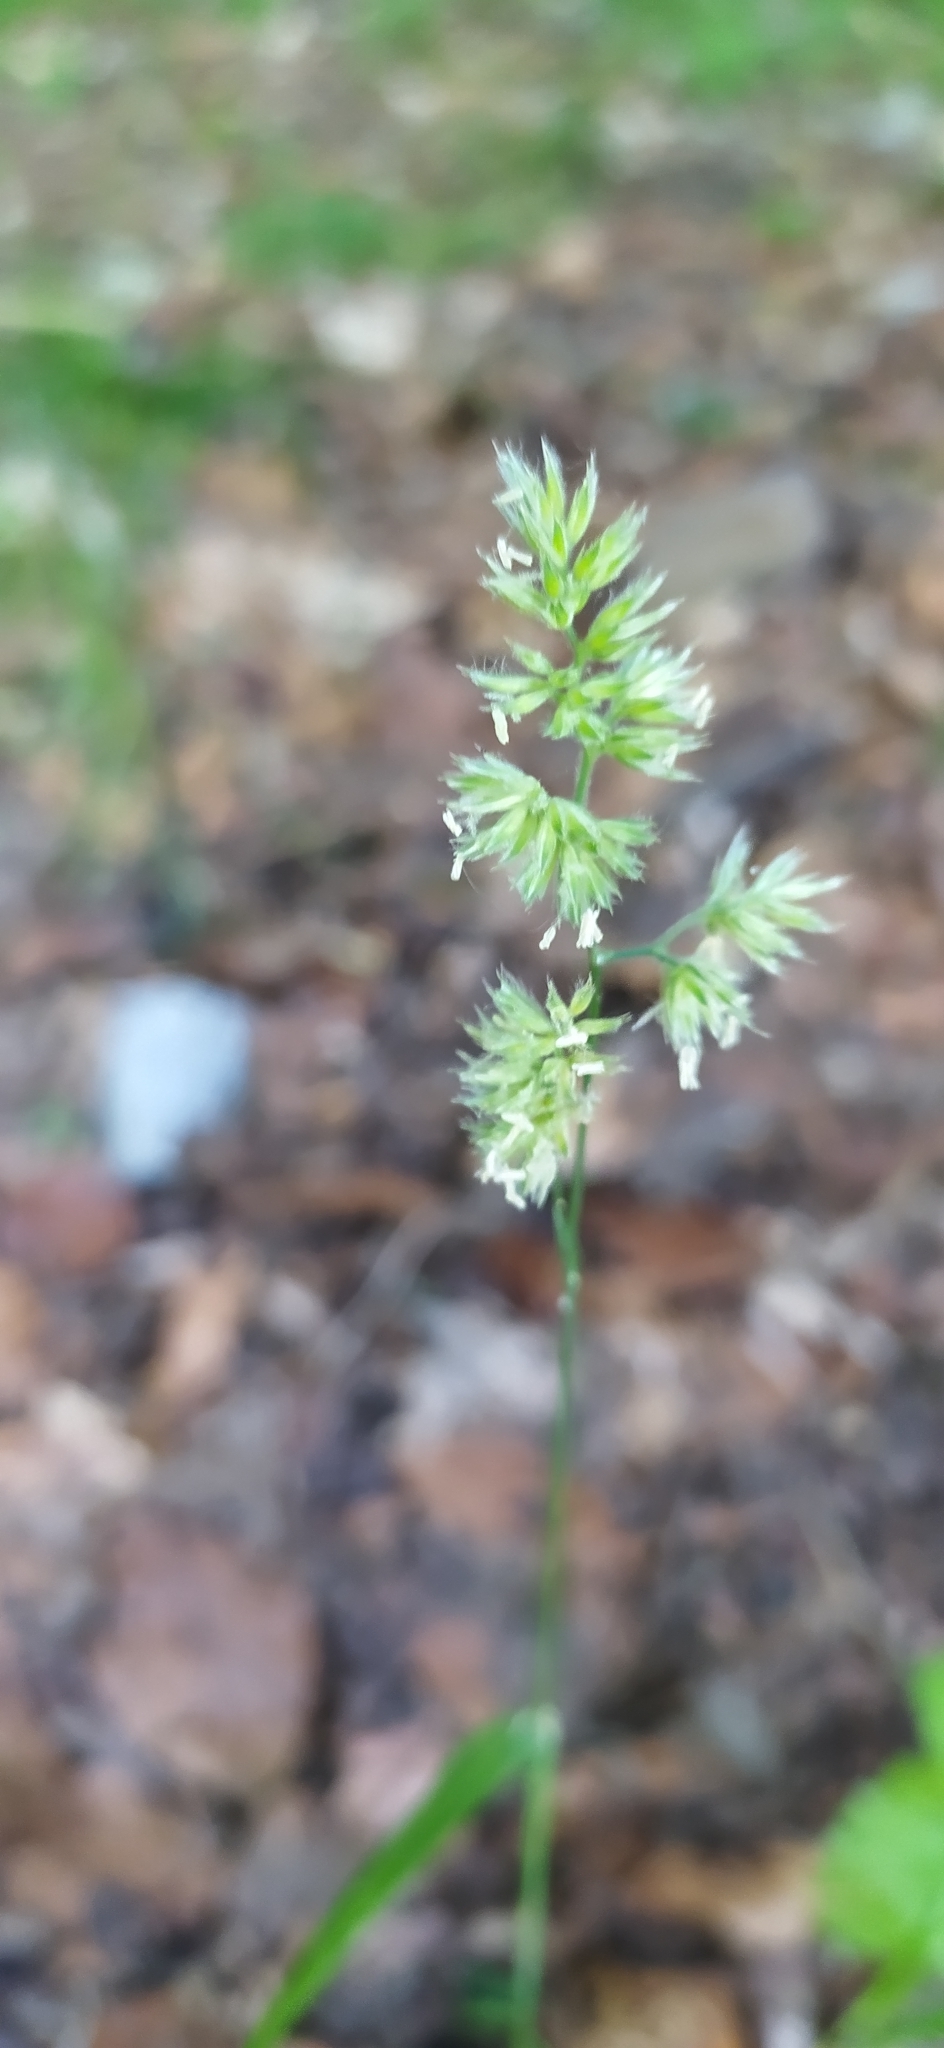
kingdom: Plantae
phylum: Tracheophyta
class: Liliopsida
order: Poales
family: Poaceae
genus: Dactylis
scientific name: Dactylis glomerata
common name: Orchardgrass
